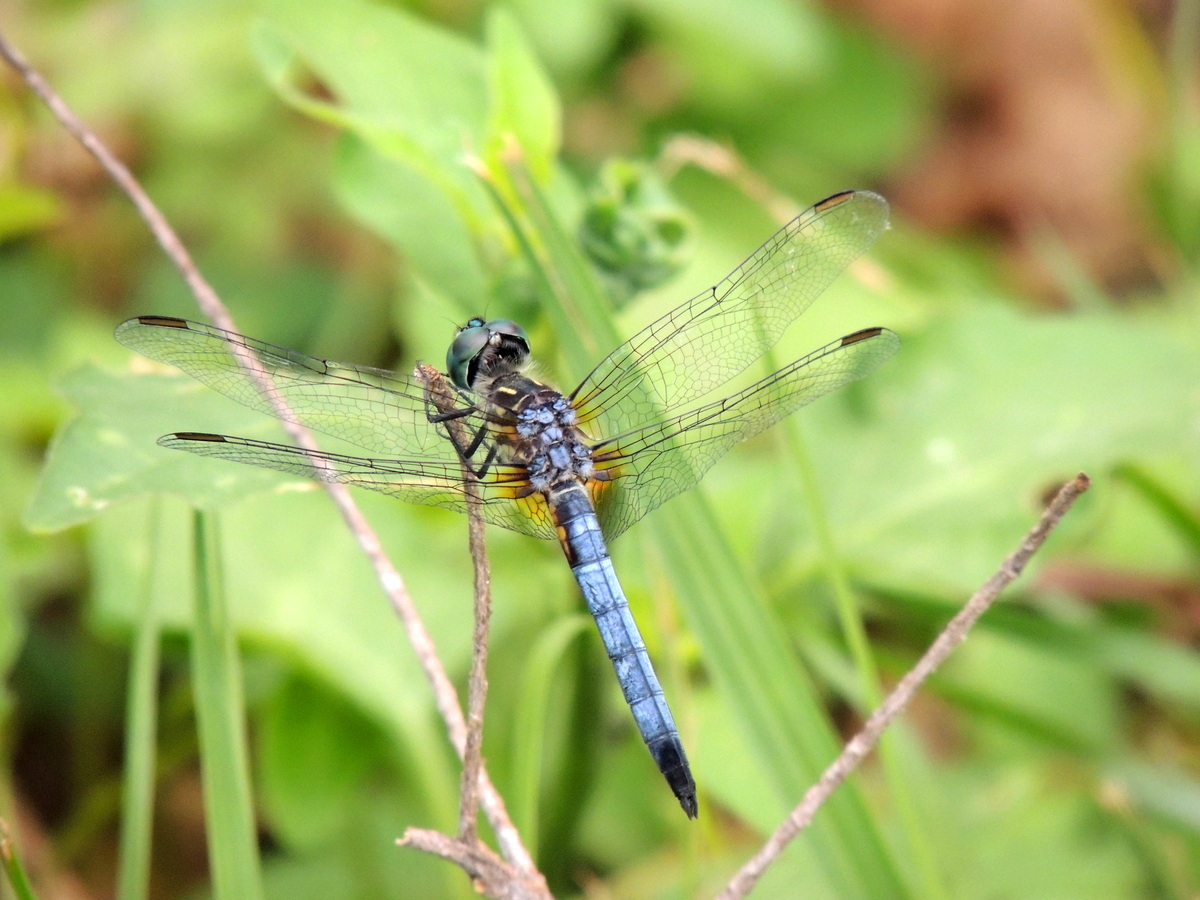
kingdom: Animalia
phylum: Arthropoda
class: Insecta
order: Odonata
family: Libellulidae
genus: Pachydiplax
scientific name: Pachydiplax longipennis
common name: Blue dasher
